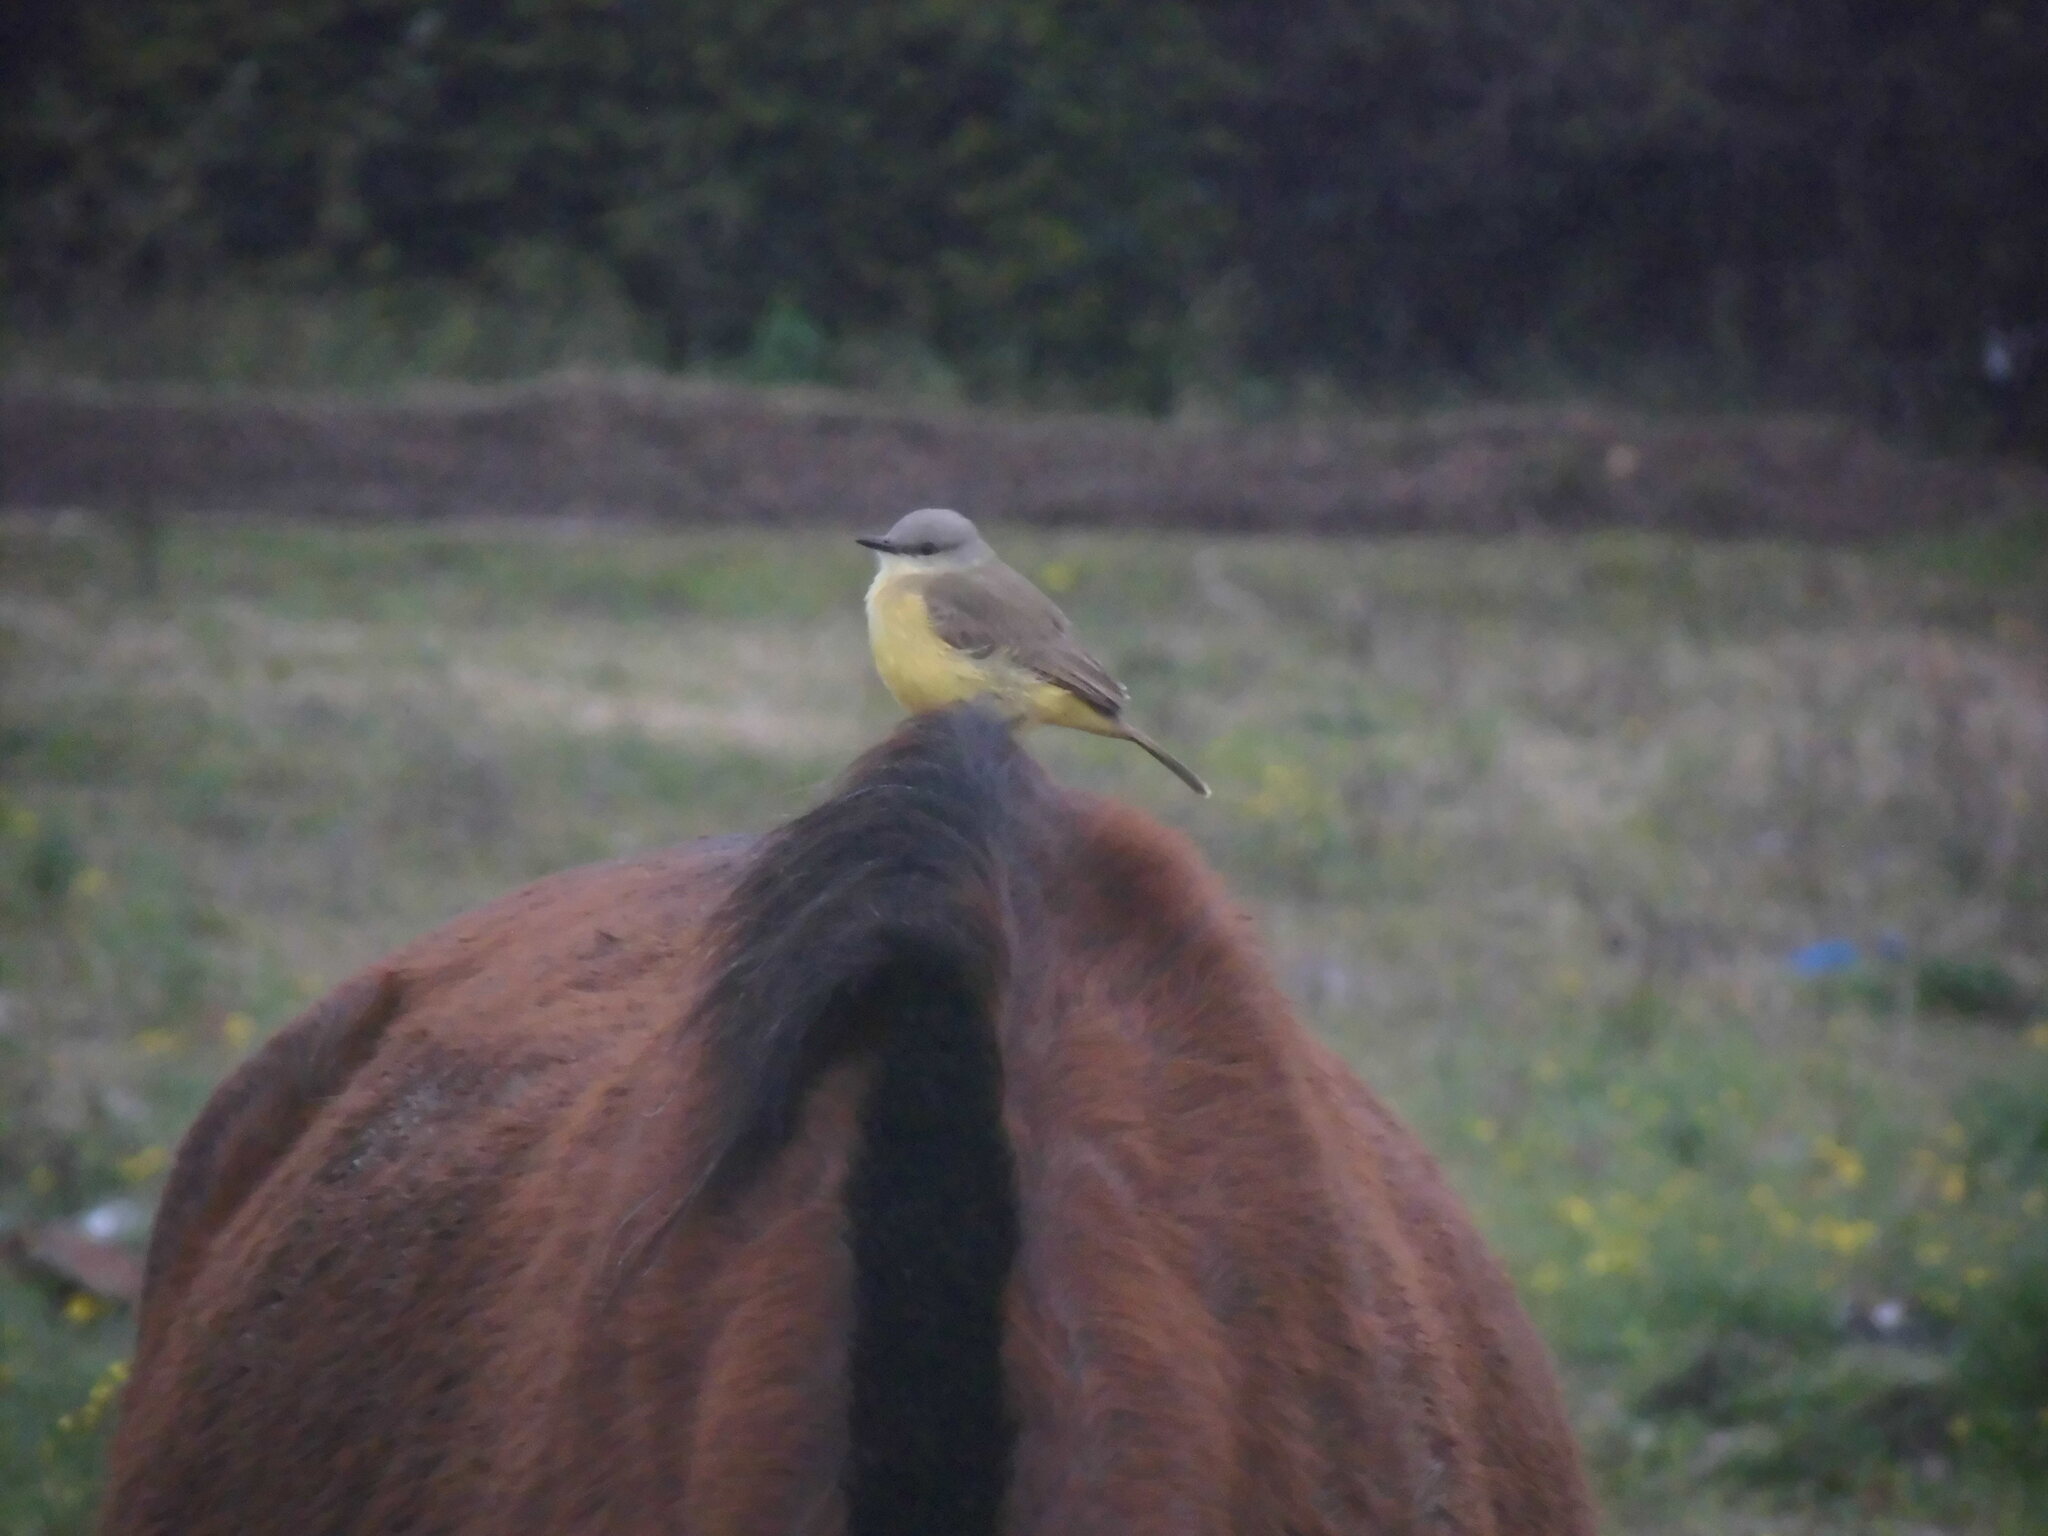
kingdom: Animalia
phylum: Chordata
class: Aves
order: Passeriformes
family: Tyrannidae
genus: Machetornis
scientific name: Machetornis rixosa
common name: Cattle tyrant
